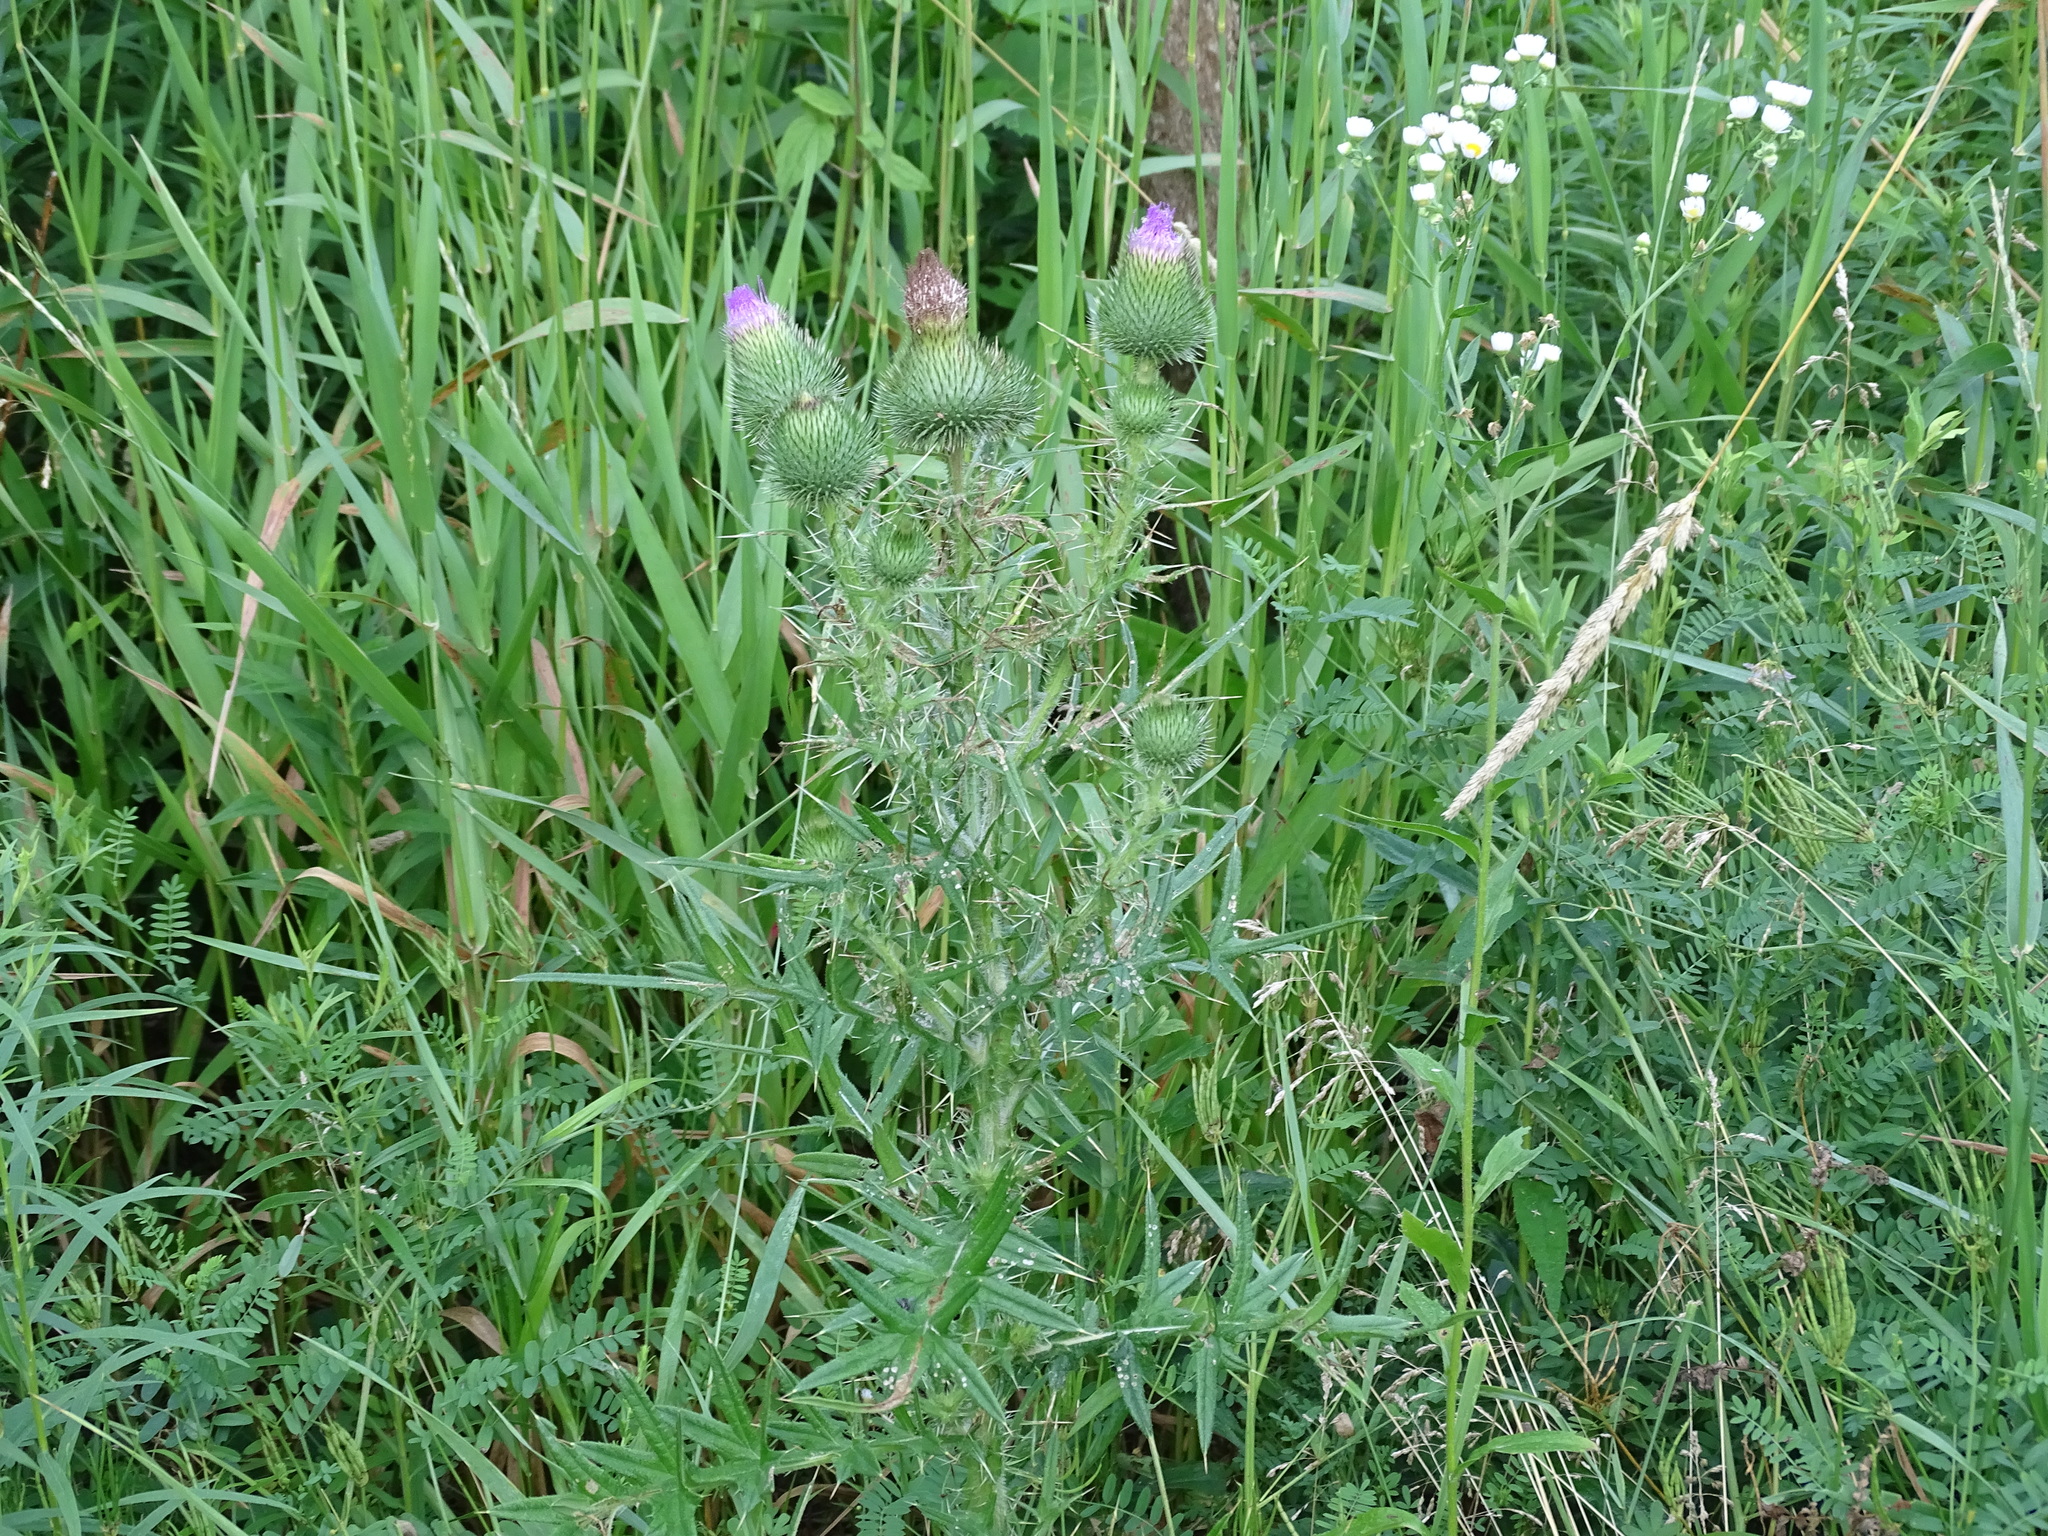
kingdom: Plantae
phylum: Tracheophyta
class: Magnoliopsida
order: Asterales
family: Asteraceae
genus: Cirsium
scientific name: Cirsium vulgare
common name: Bull thistle
